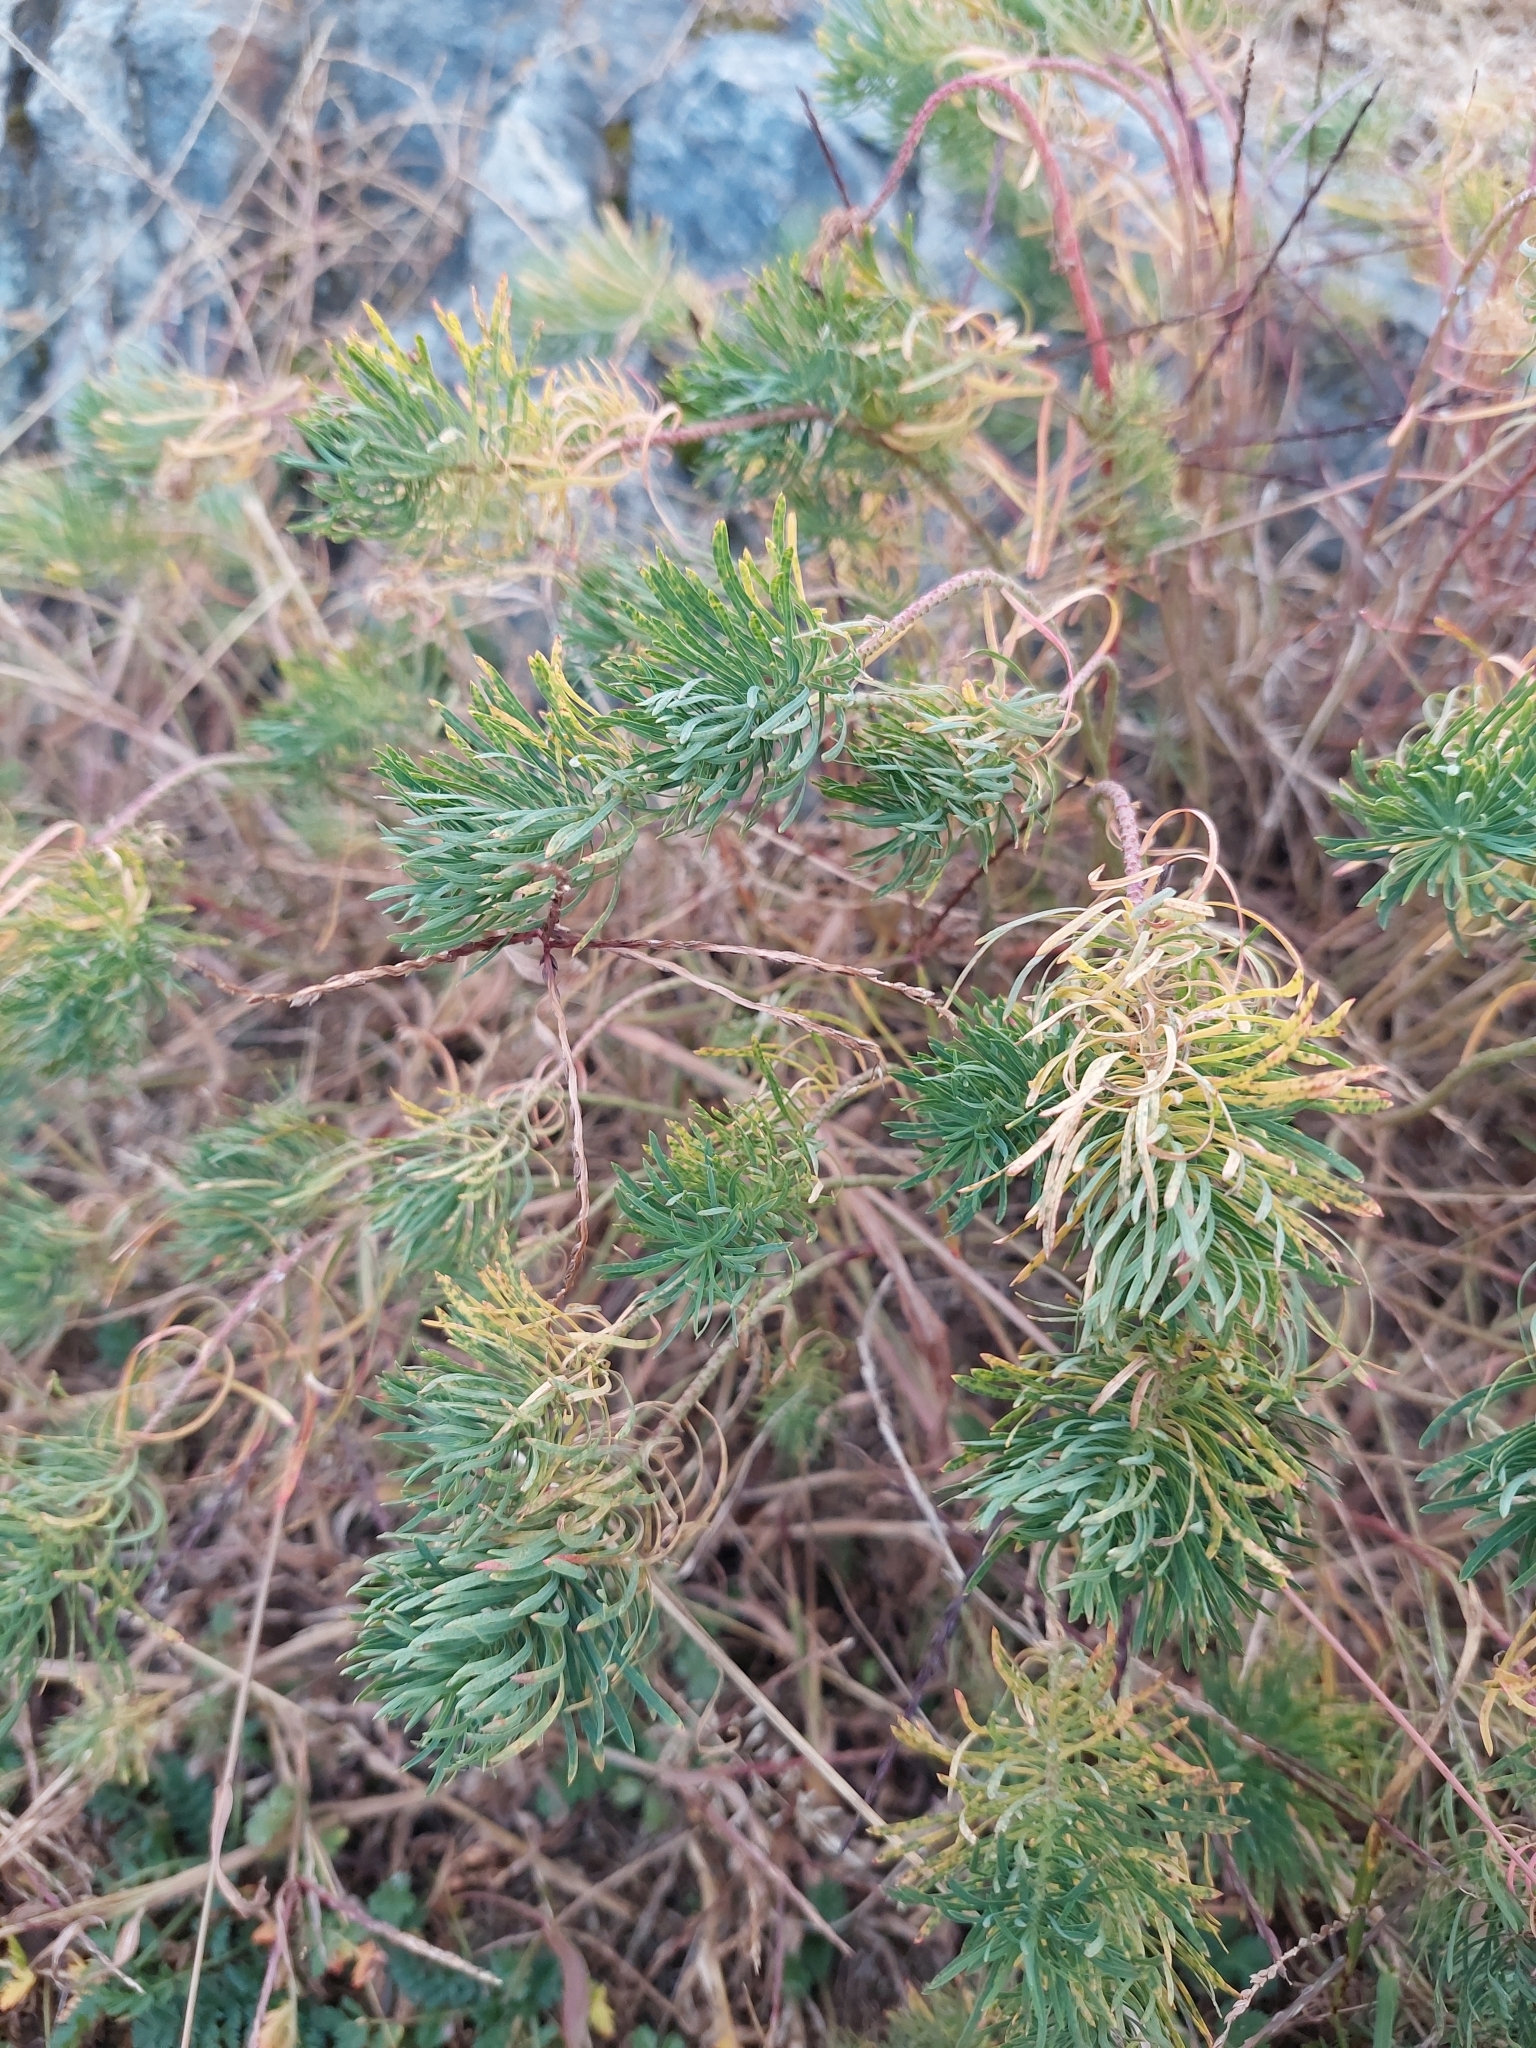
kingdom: Plantae
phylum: Tracheophyta
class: Magnoliopsida
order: Malpighiales
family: Euphorbiaceae
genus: Euphorbia
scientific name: Euphorbia cyparissias
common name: Cypress spurge
